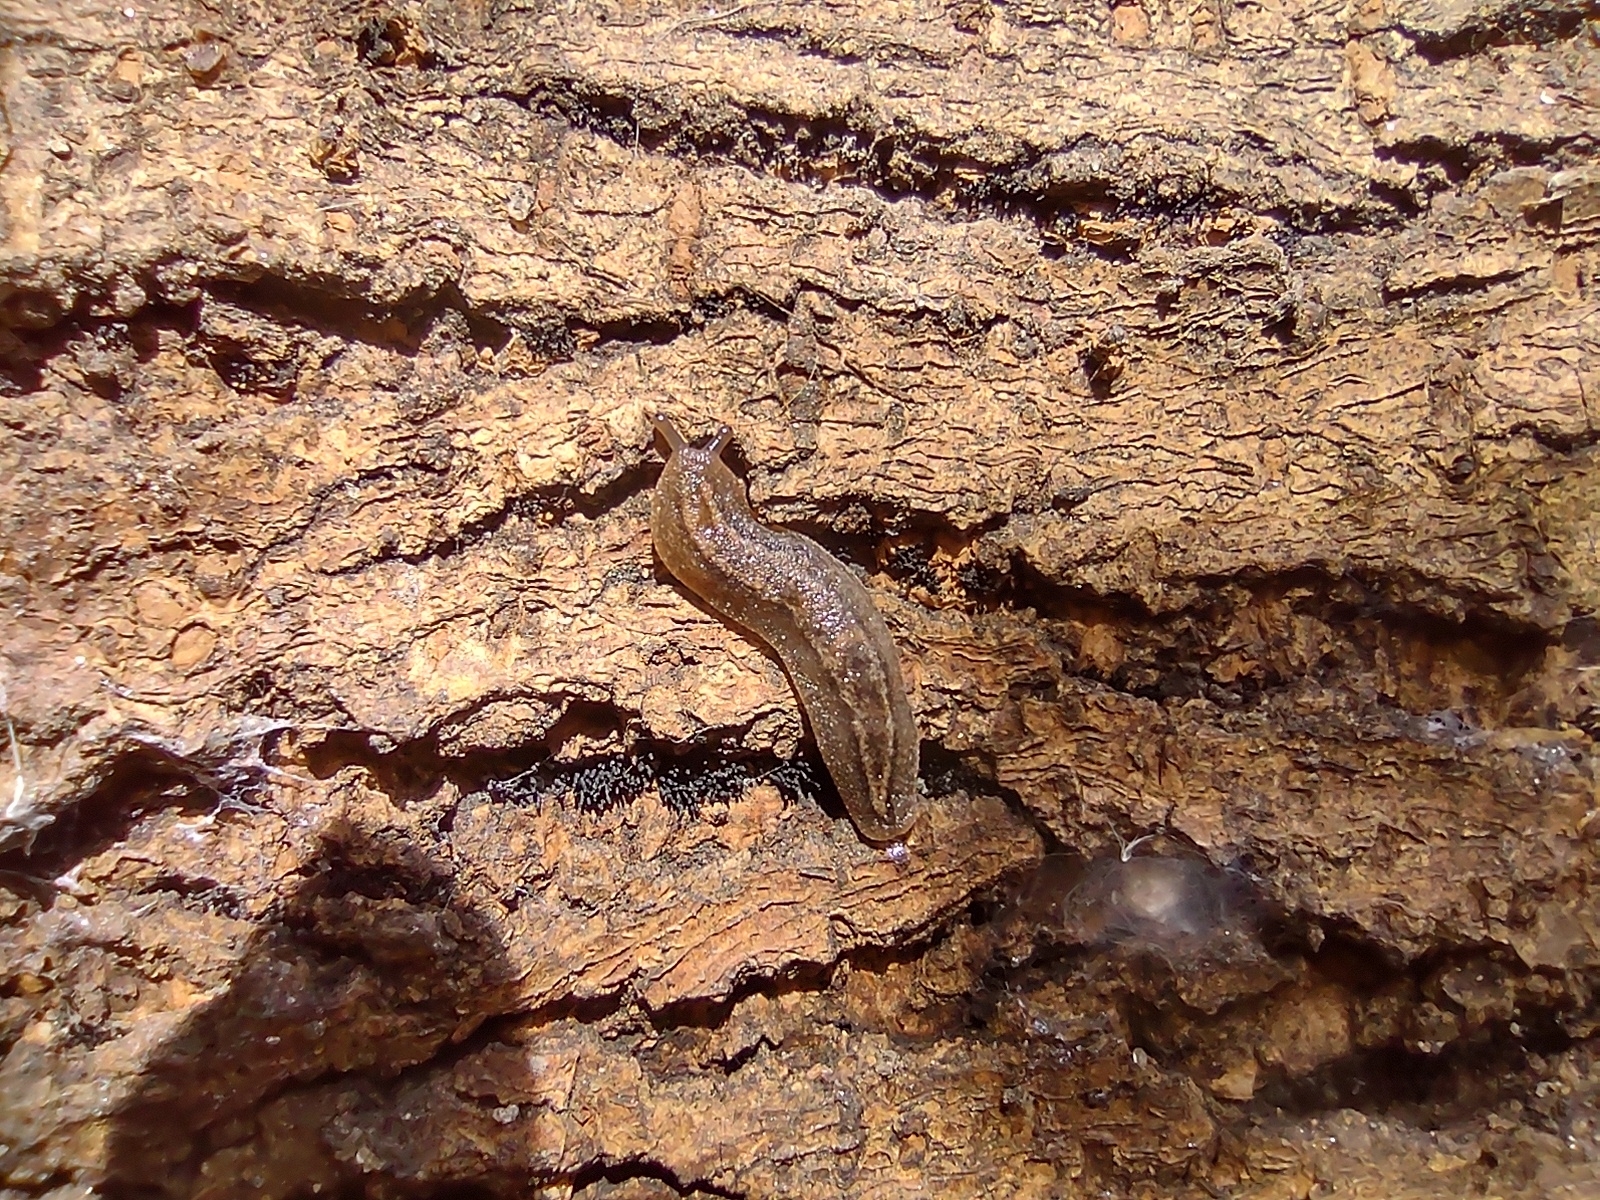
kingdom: Animalia
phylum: Mollusca
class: Gastropoda
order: Systellommatophora
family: Veronicellidae
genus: Phyllocaulis
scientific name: Phyllocaulis soleiformis
